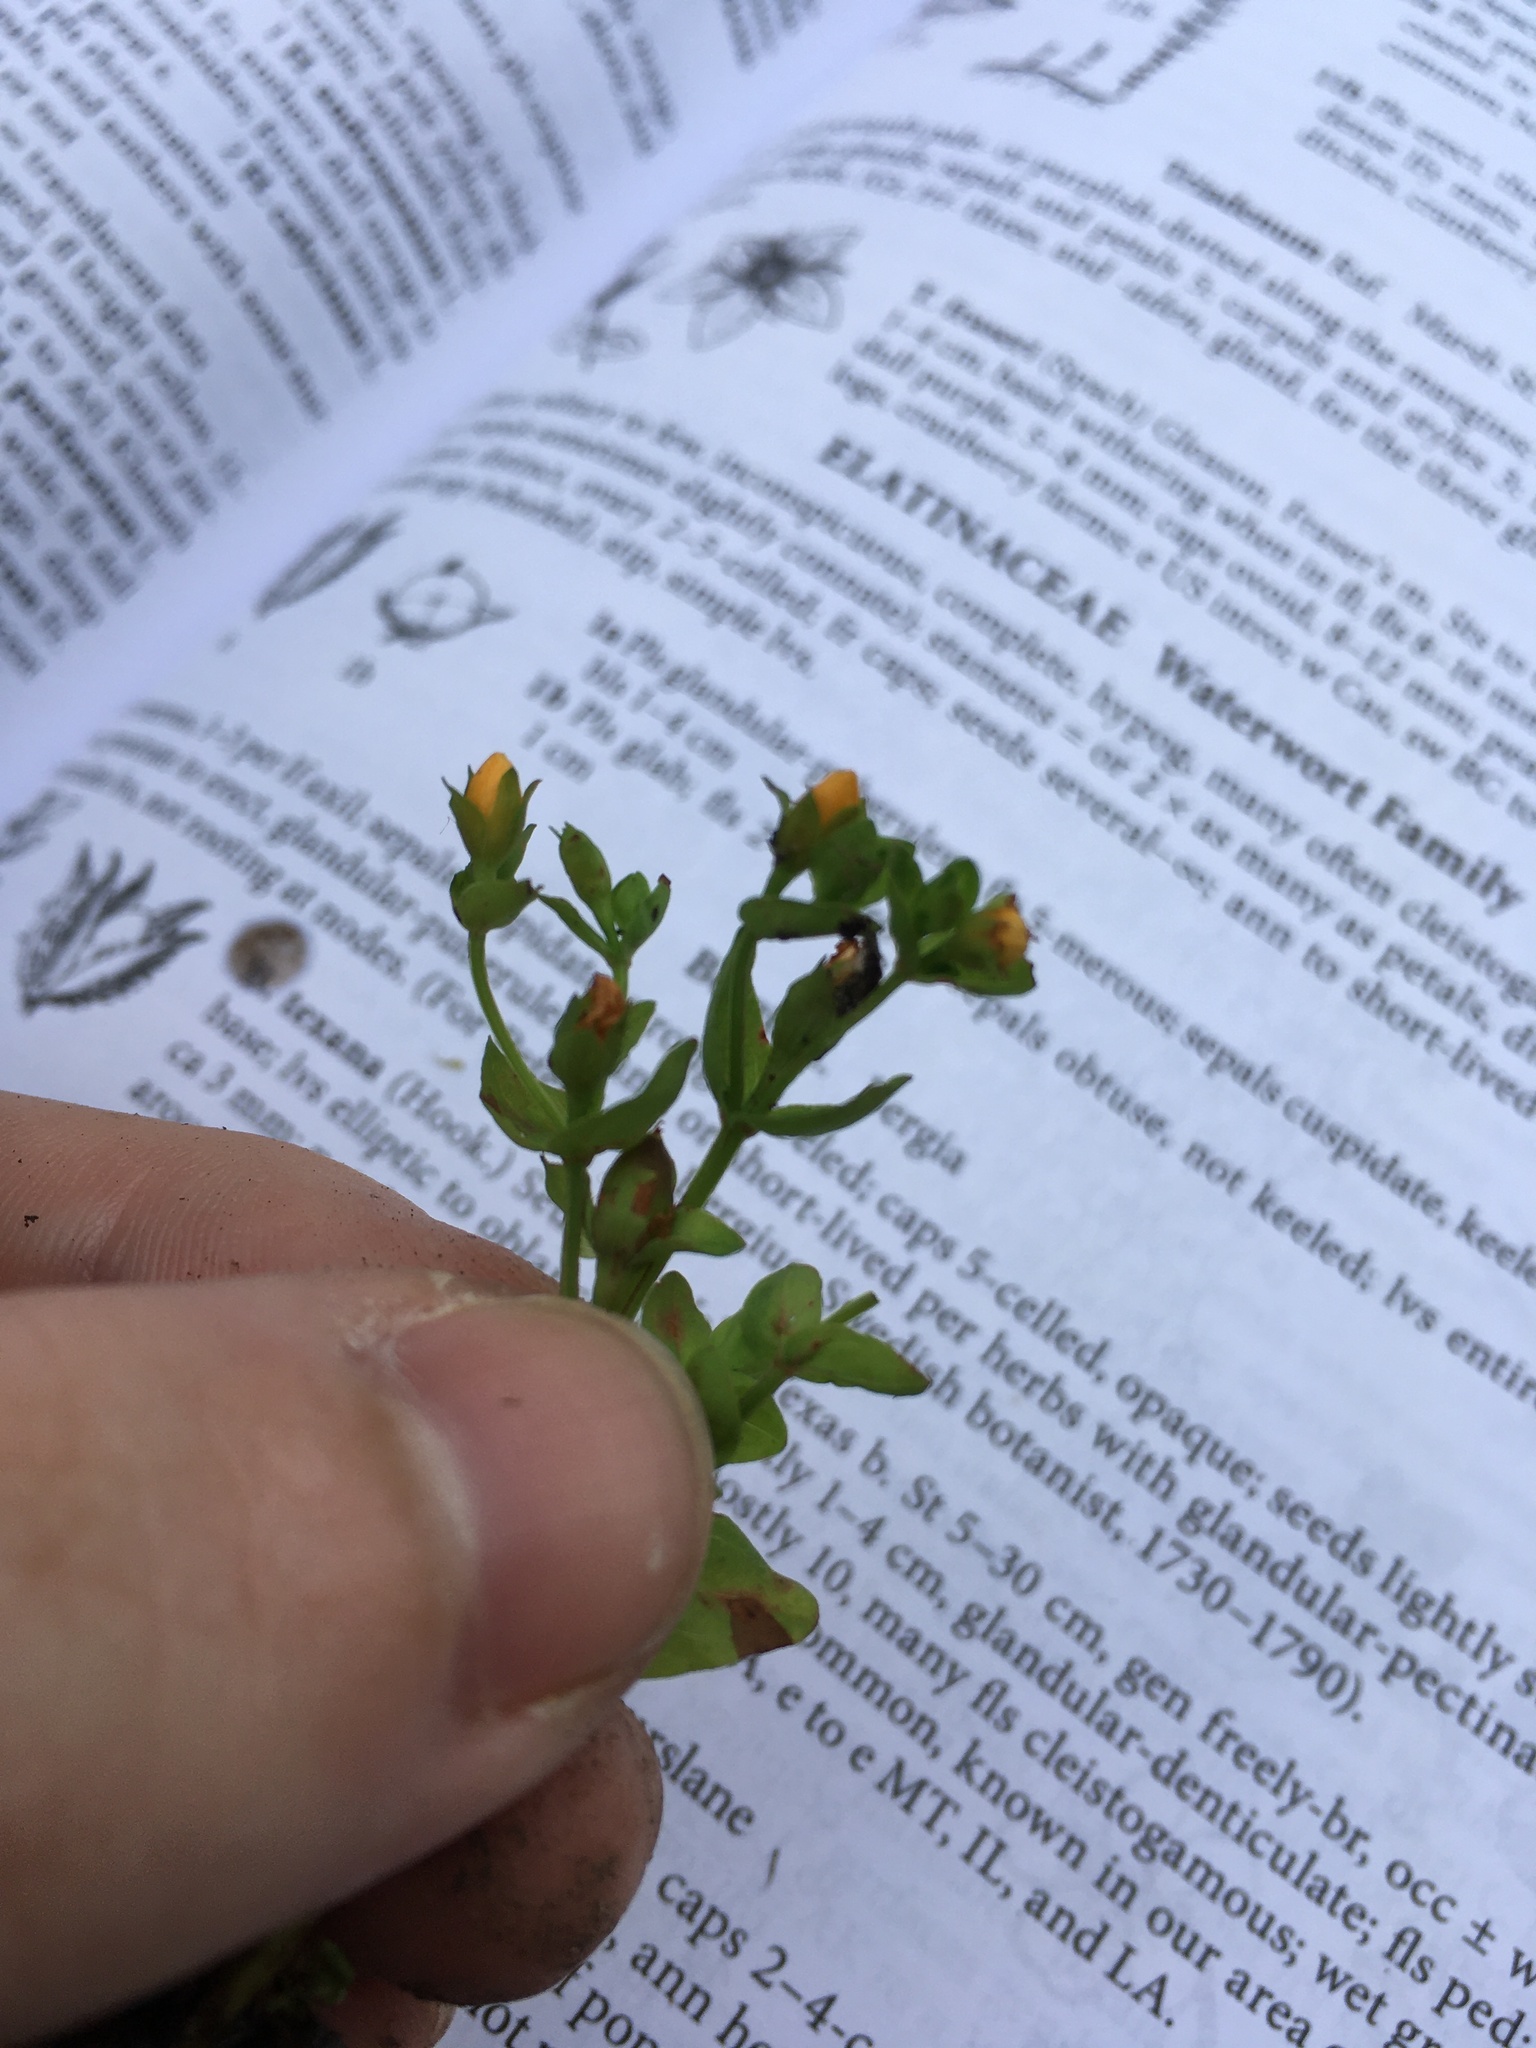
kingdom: Plantae
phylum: Tracheophyta
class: Magnoliopsida
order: Malpighiales
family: Hypericaceae
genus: Hypericum
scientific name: Hypericum anagalloides
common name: Bog st. john's-wort
